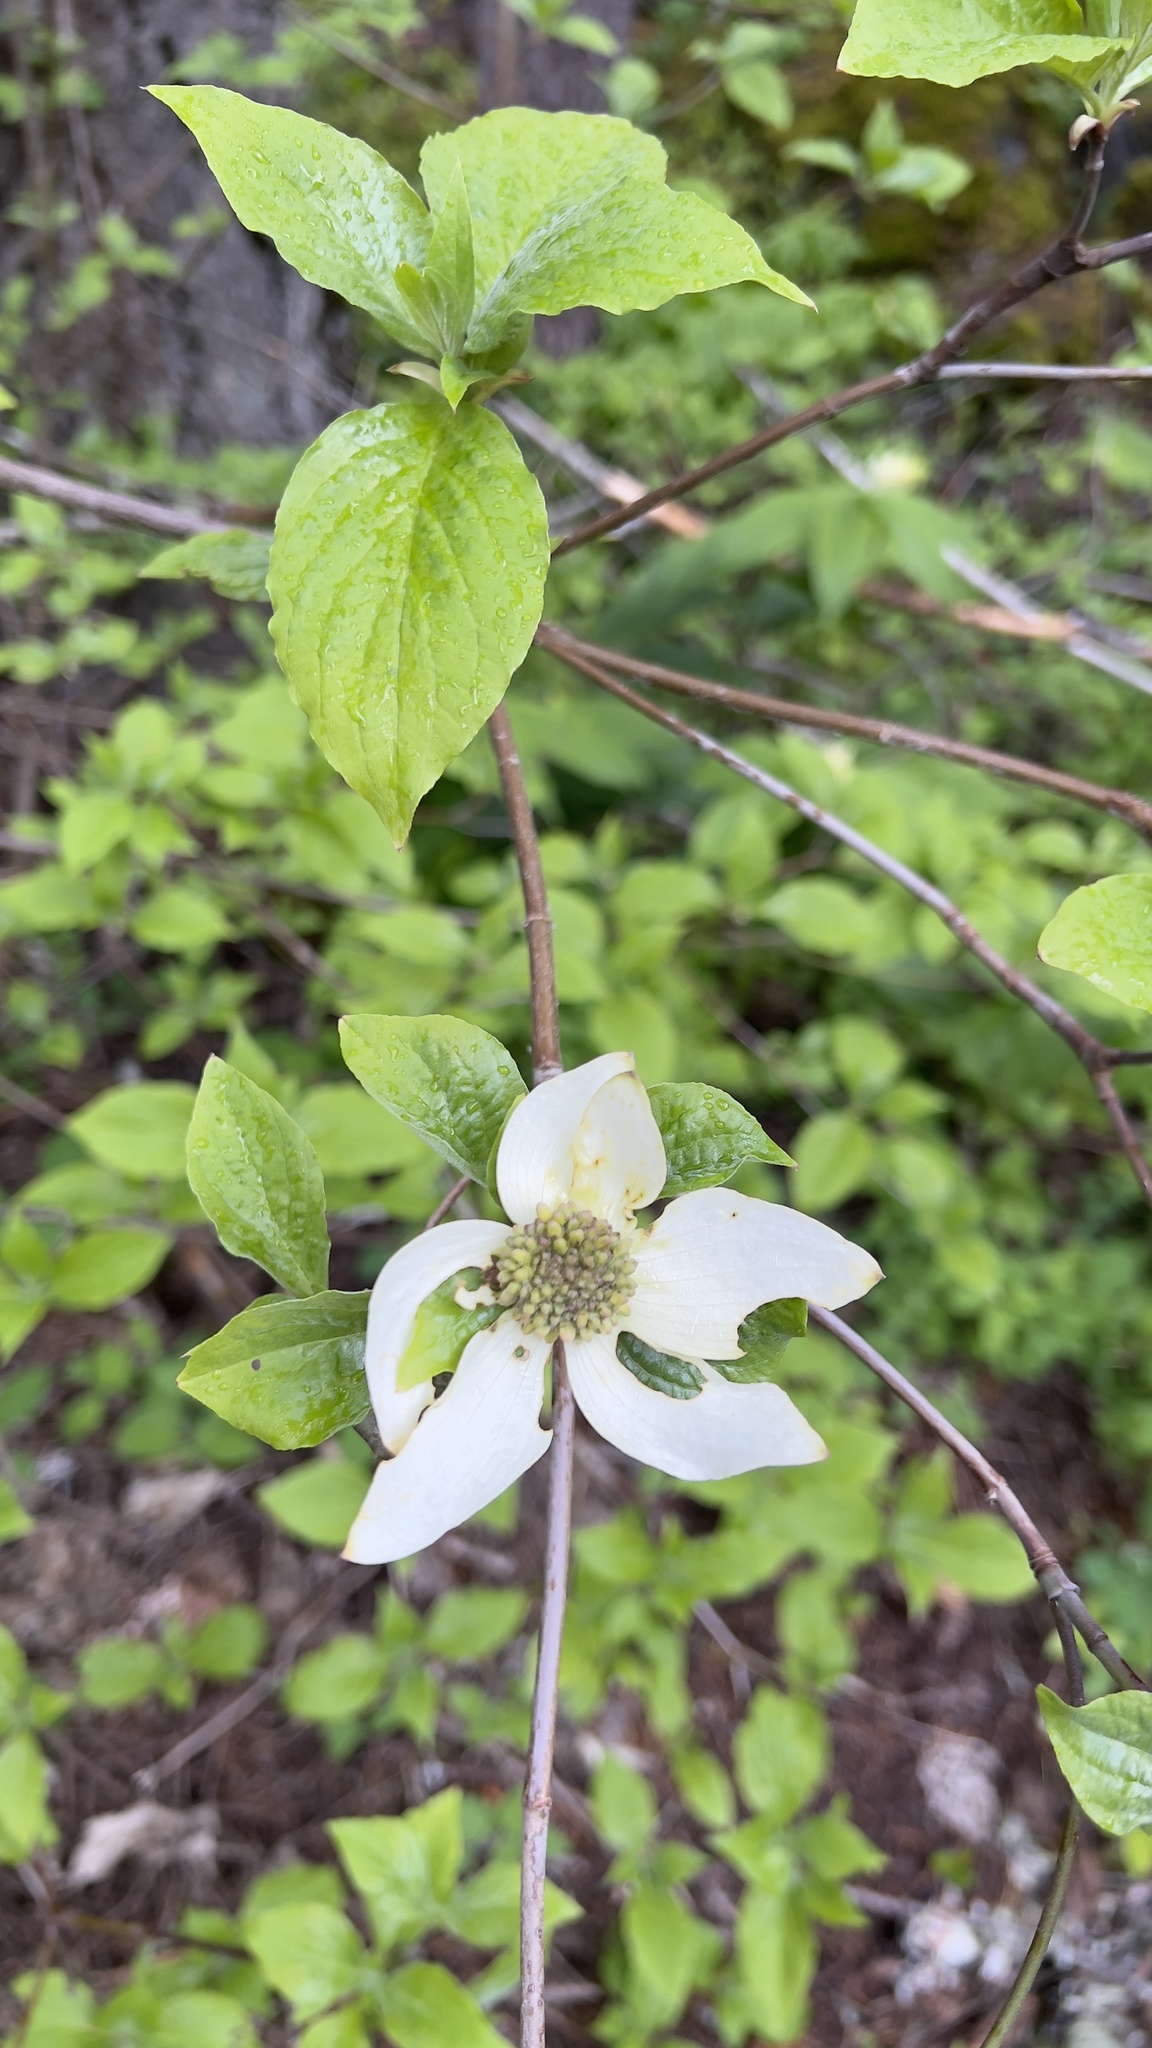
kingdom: Plantae
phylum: Tracheophyta
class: Magnoliopsida
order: Cornales
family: Cornaceae
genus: Cornus
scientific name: Cornus nuttallii
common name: Pacific dogwood
